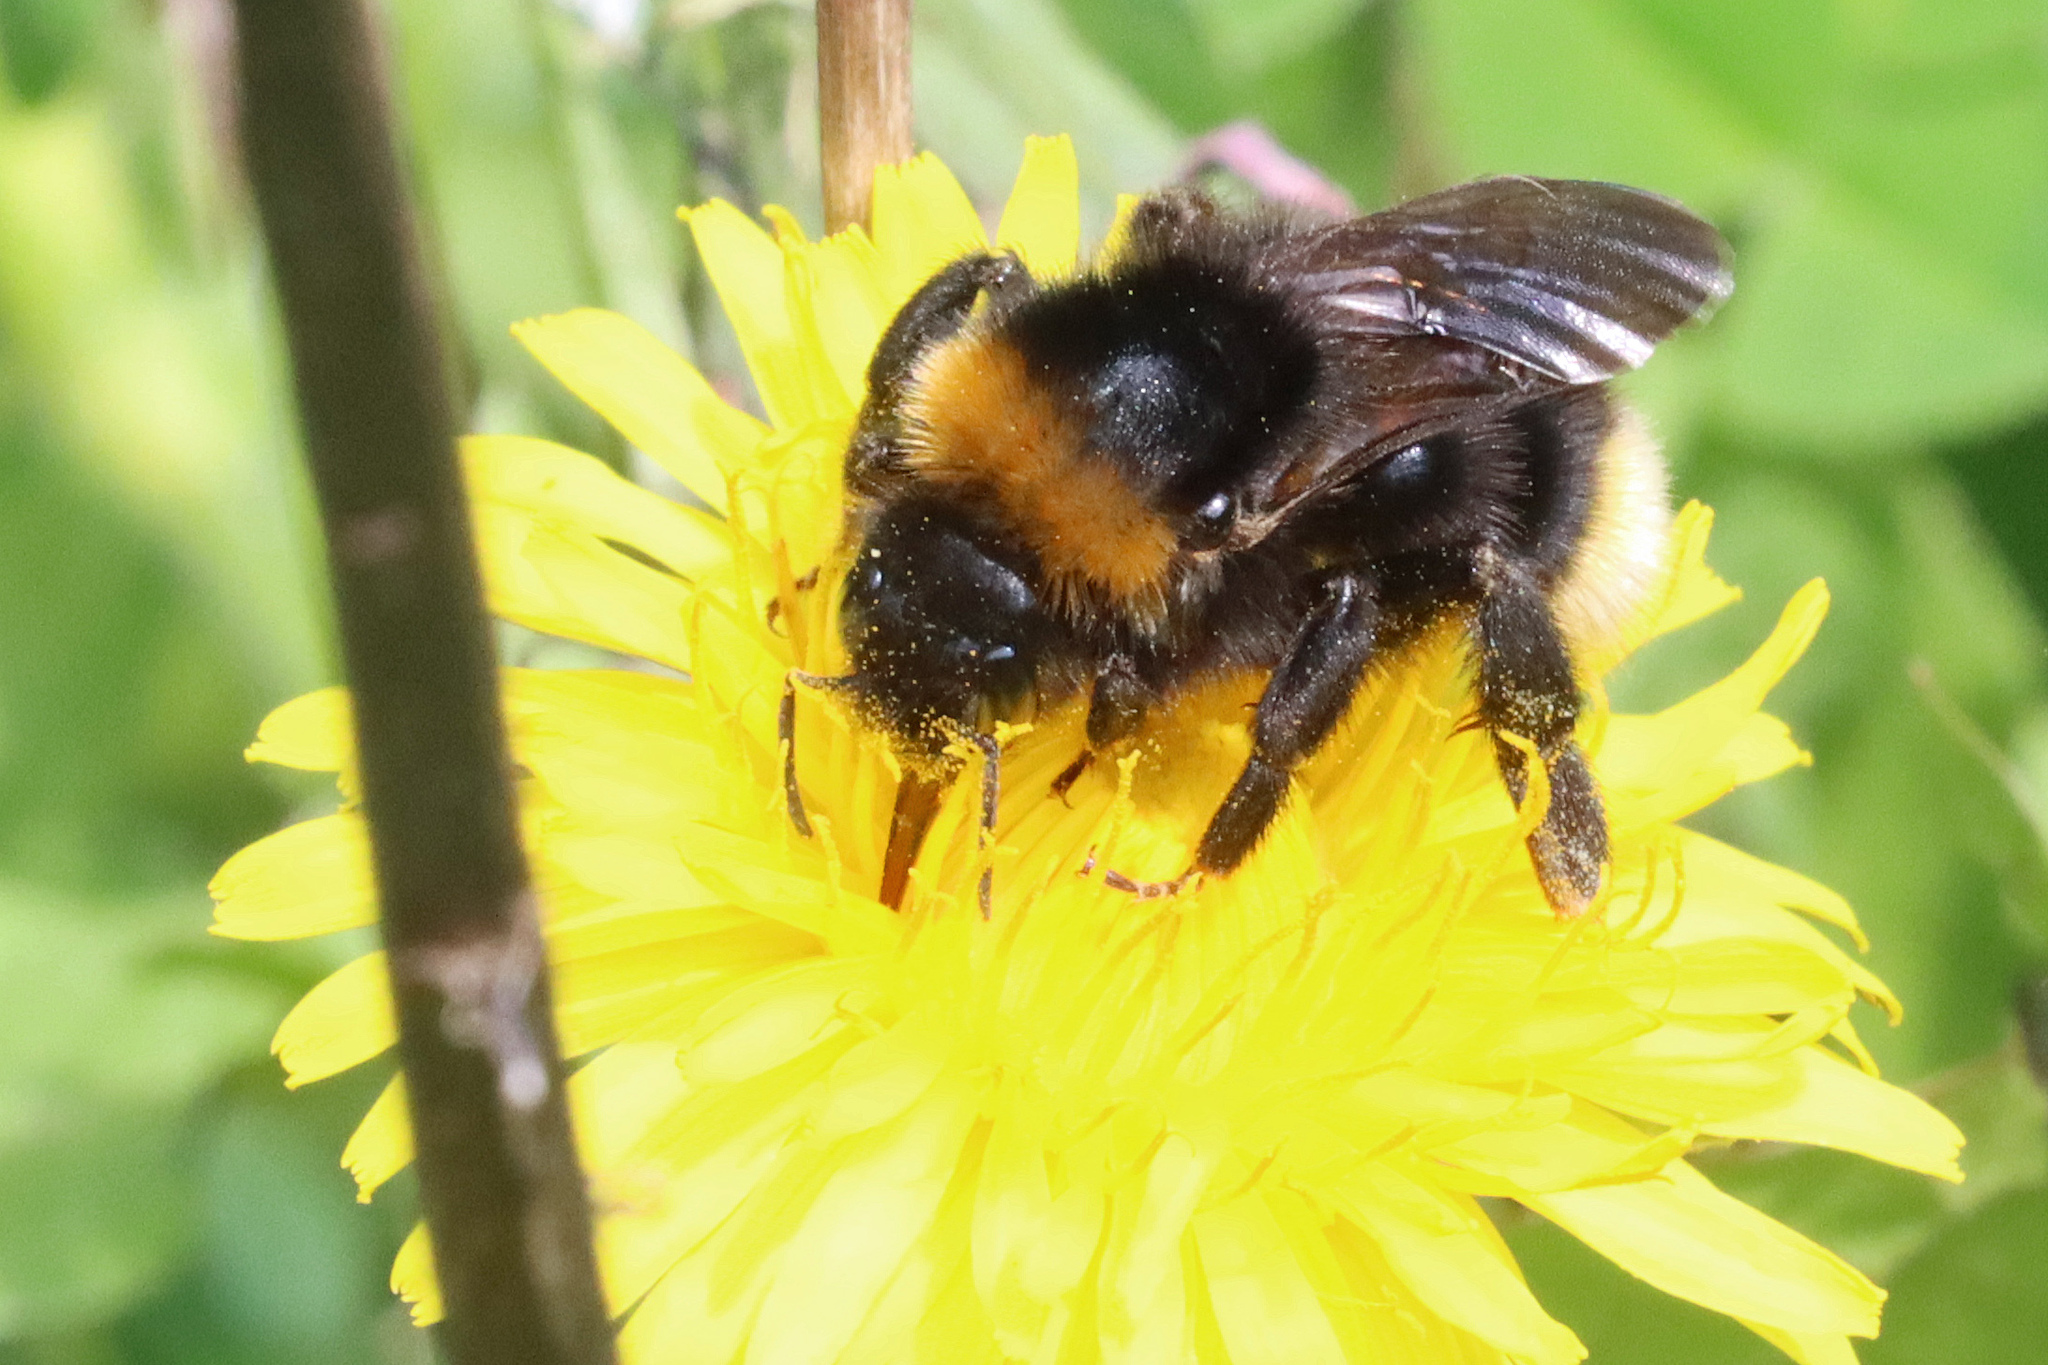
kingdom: Animalia
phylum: Arthropoda
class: Insecta
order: Hymenoptera
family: Apidae
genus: Bombus
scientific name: Bombus vestalis
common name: Vestal cuckoo bee
